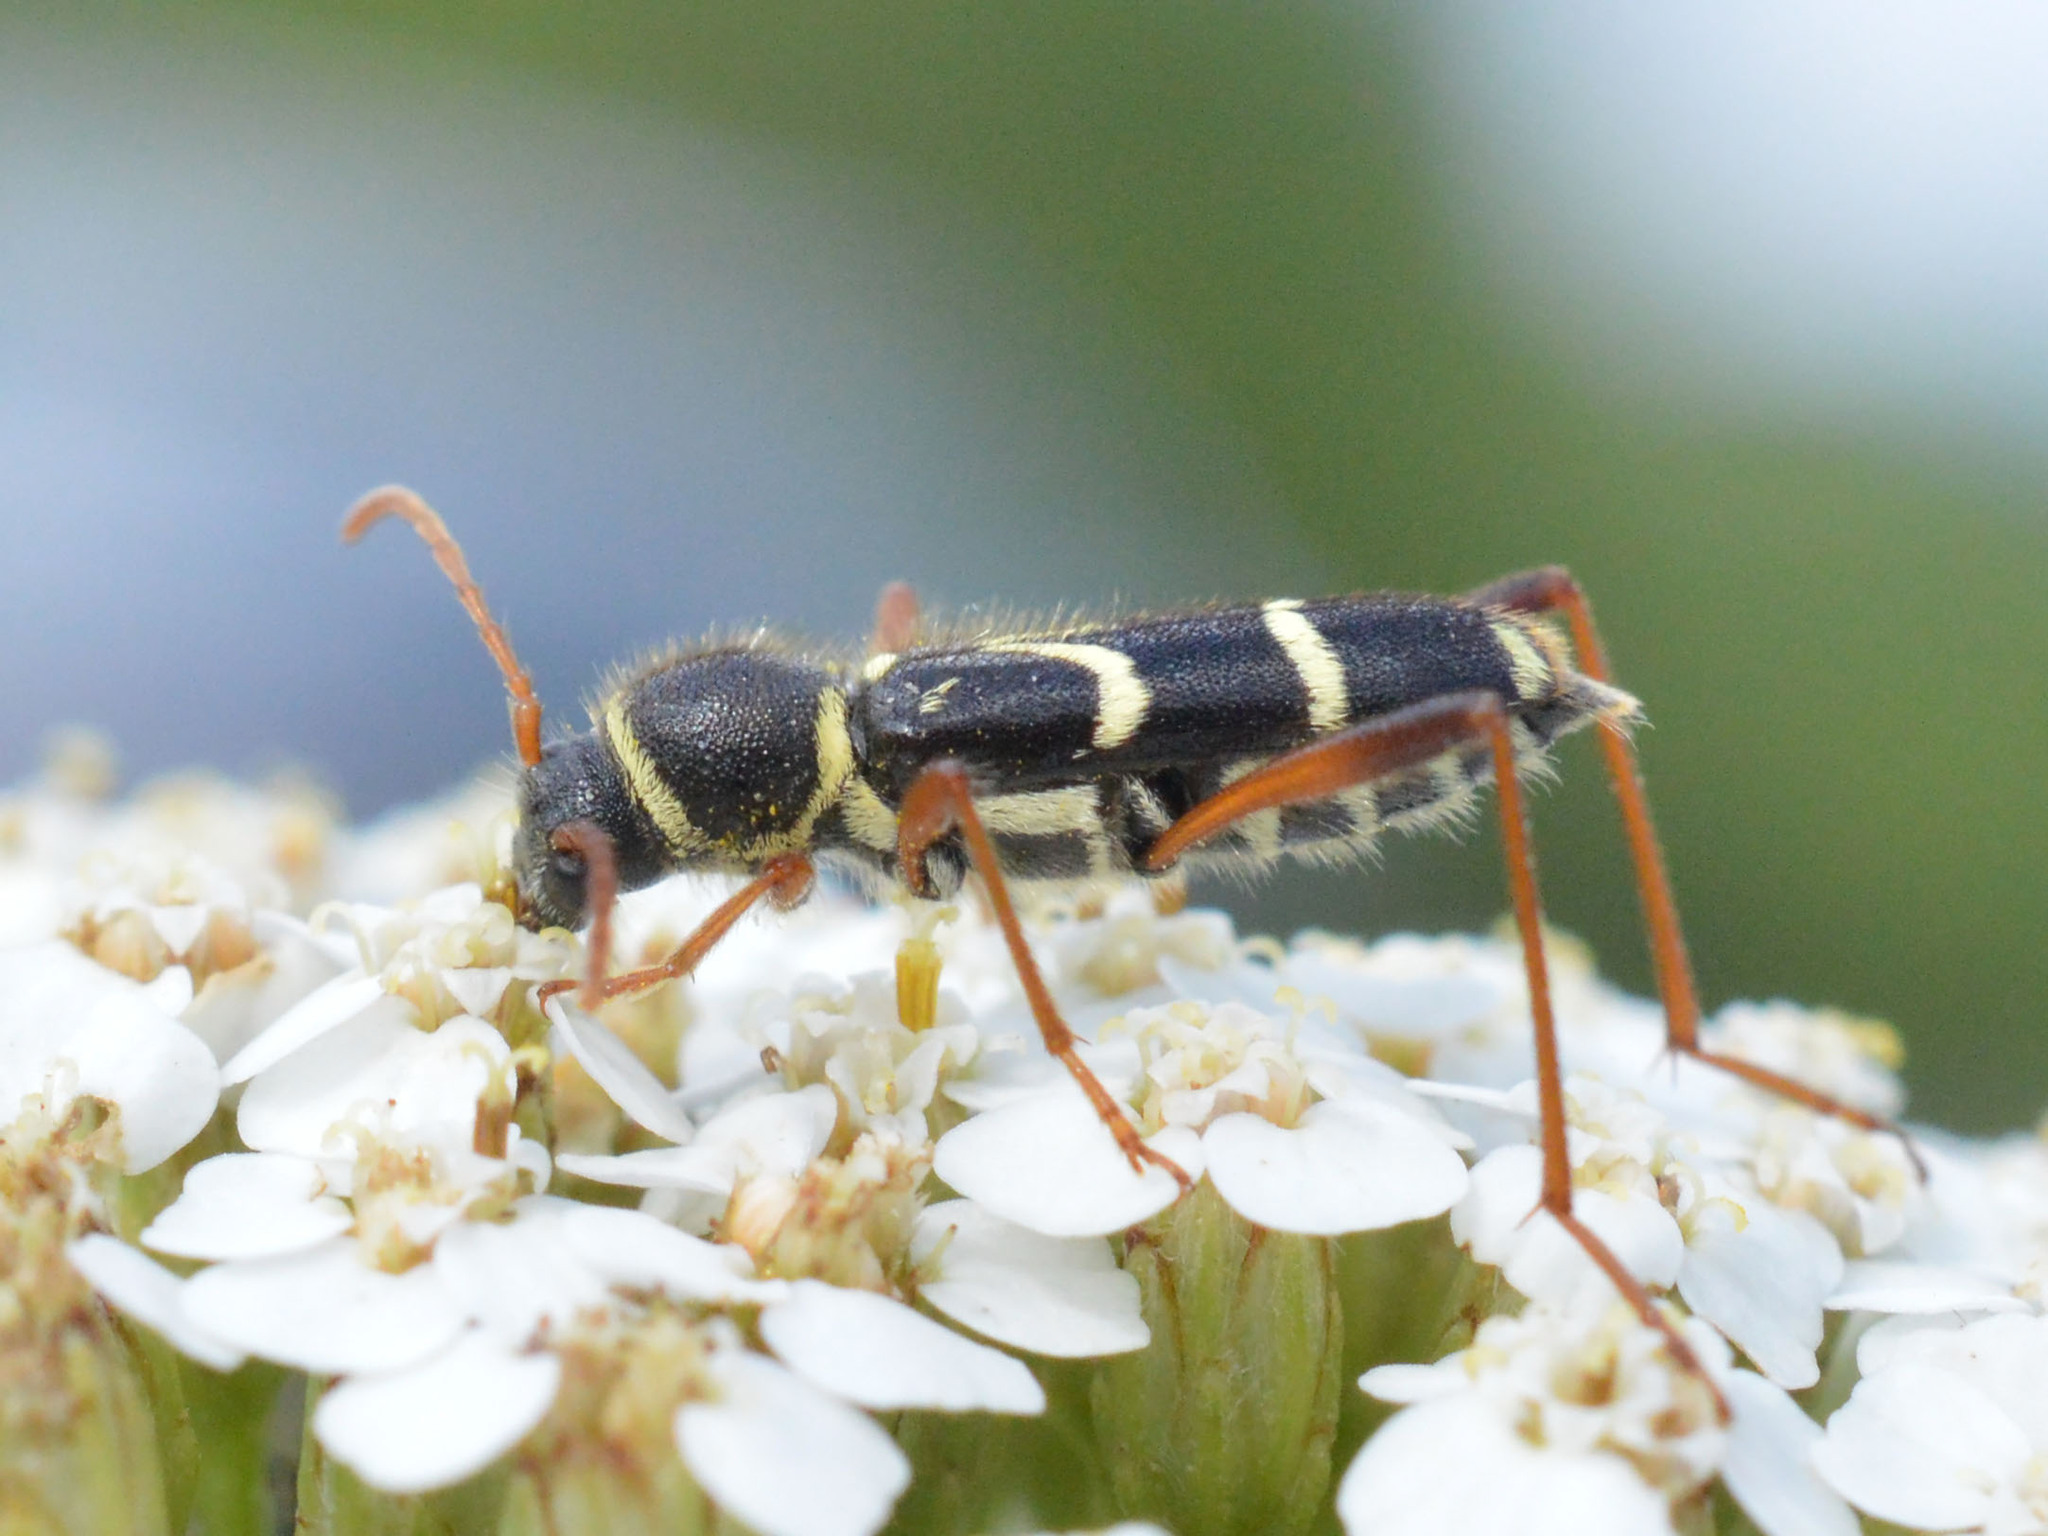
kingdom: Animalia
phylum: Arthropoda
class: Insecta
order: Coleoptera
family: Cerambycidae
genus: Clytus
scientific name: Clytus rhamni
